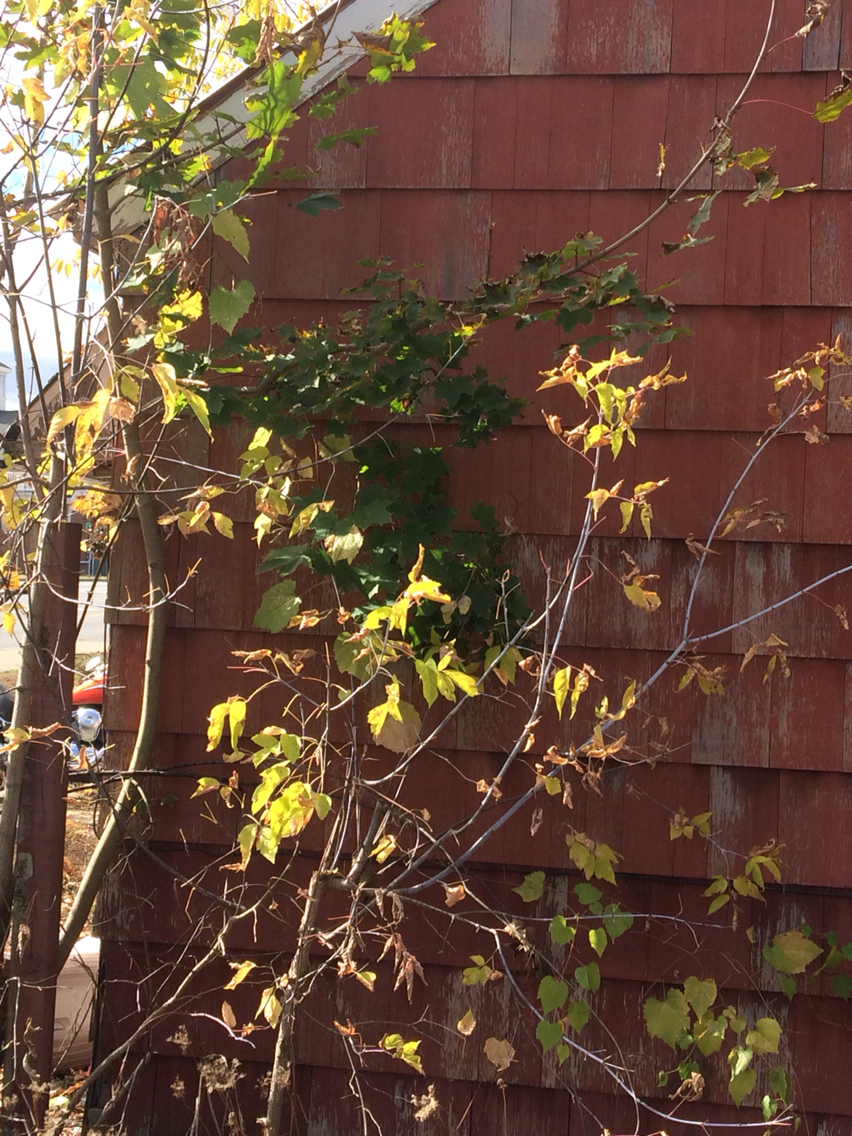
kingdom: Plantae
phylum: Tracheophyta
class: Magnoliopsida
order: Sapindales
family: Sapindaceae
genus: Acer
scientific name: Acer platanoides
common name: Norway maple
